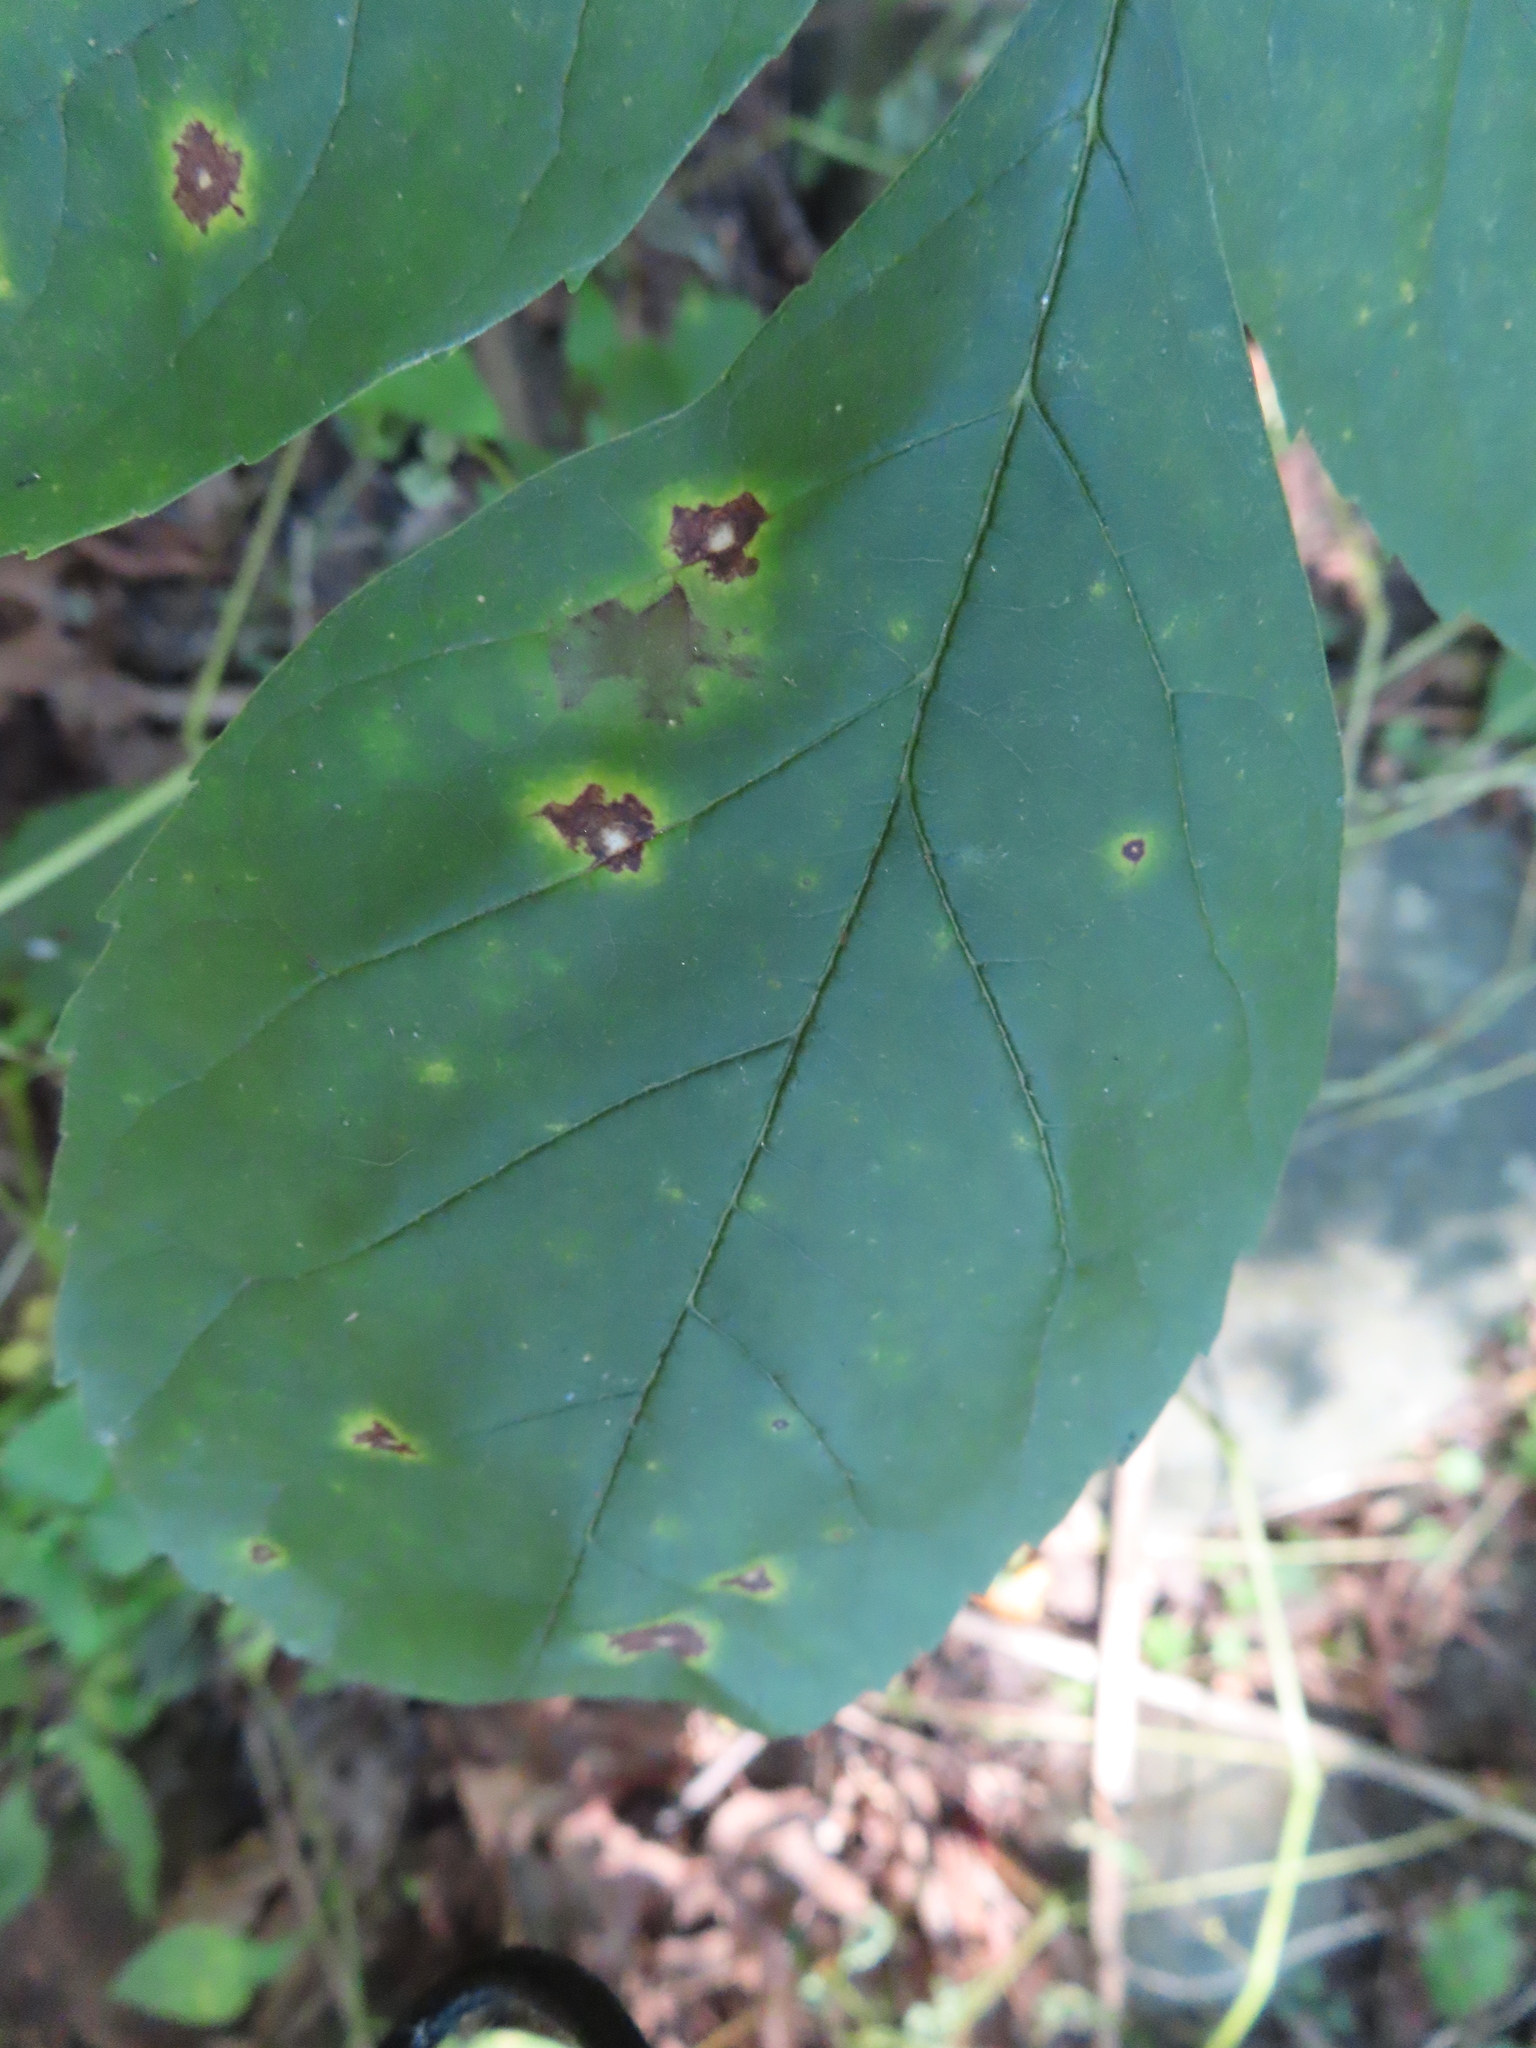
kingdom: Fungi
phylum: Ascomycota
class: Dothideomycetes
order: Mycosphaerellales
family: Mycosphaerellaceae
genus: Mycosphaerella
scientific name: Mycosphaerella fraxinicola
